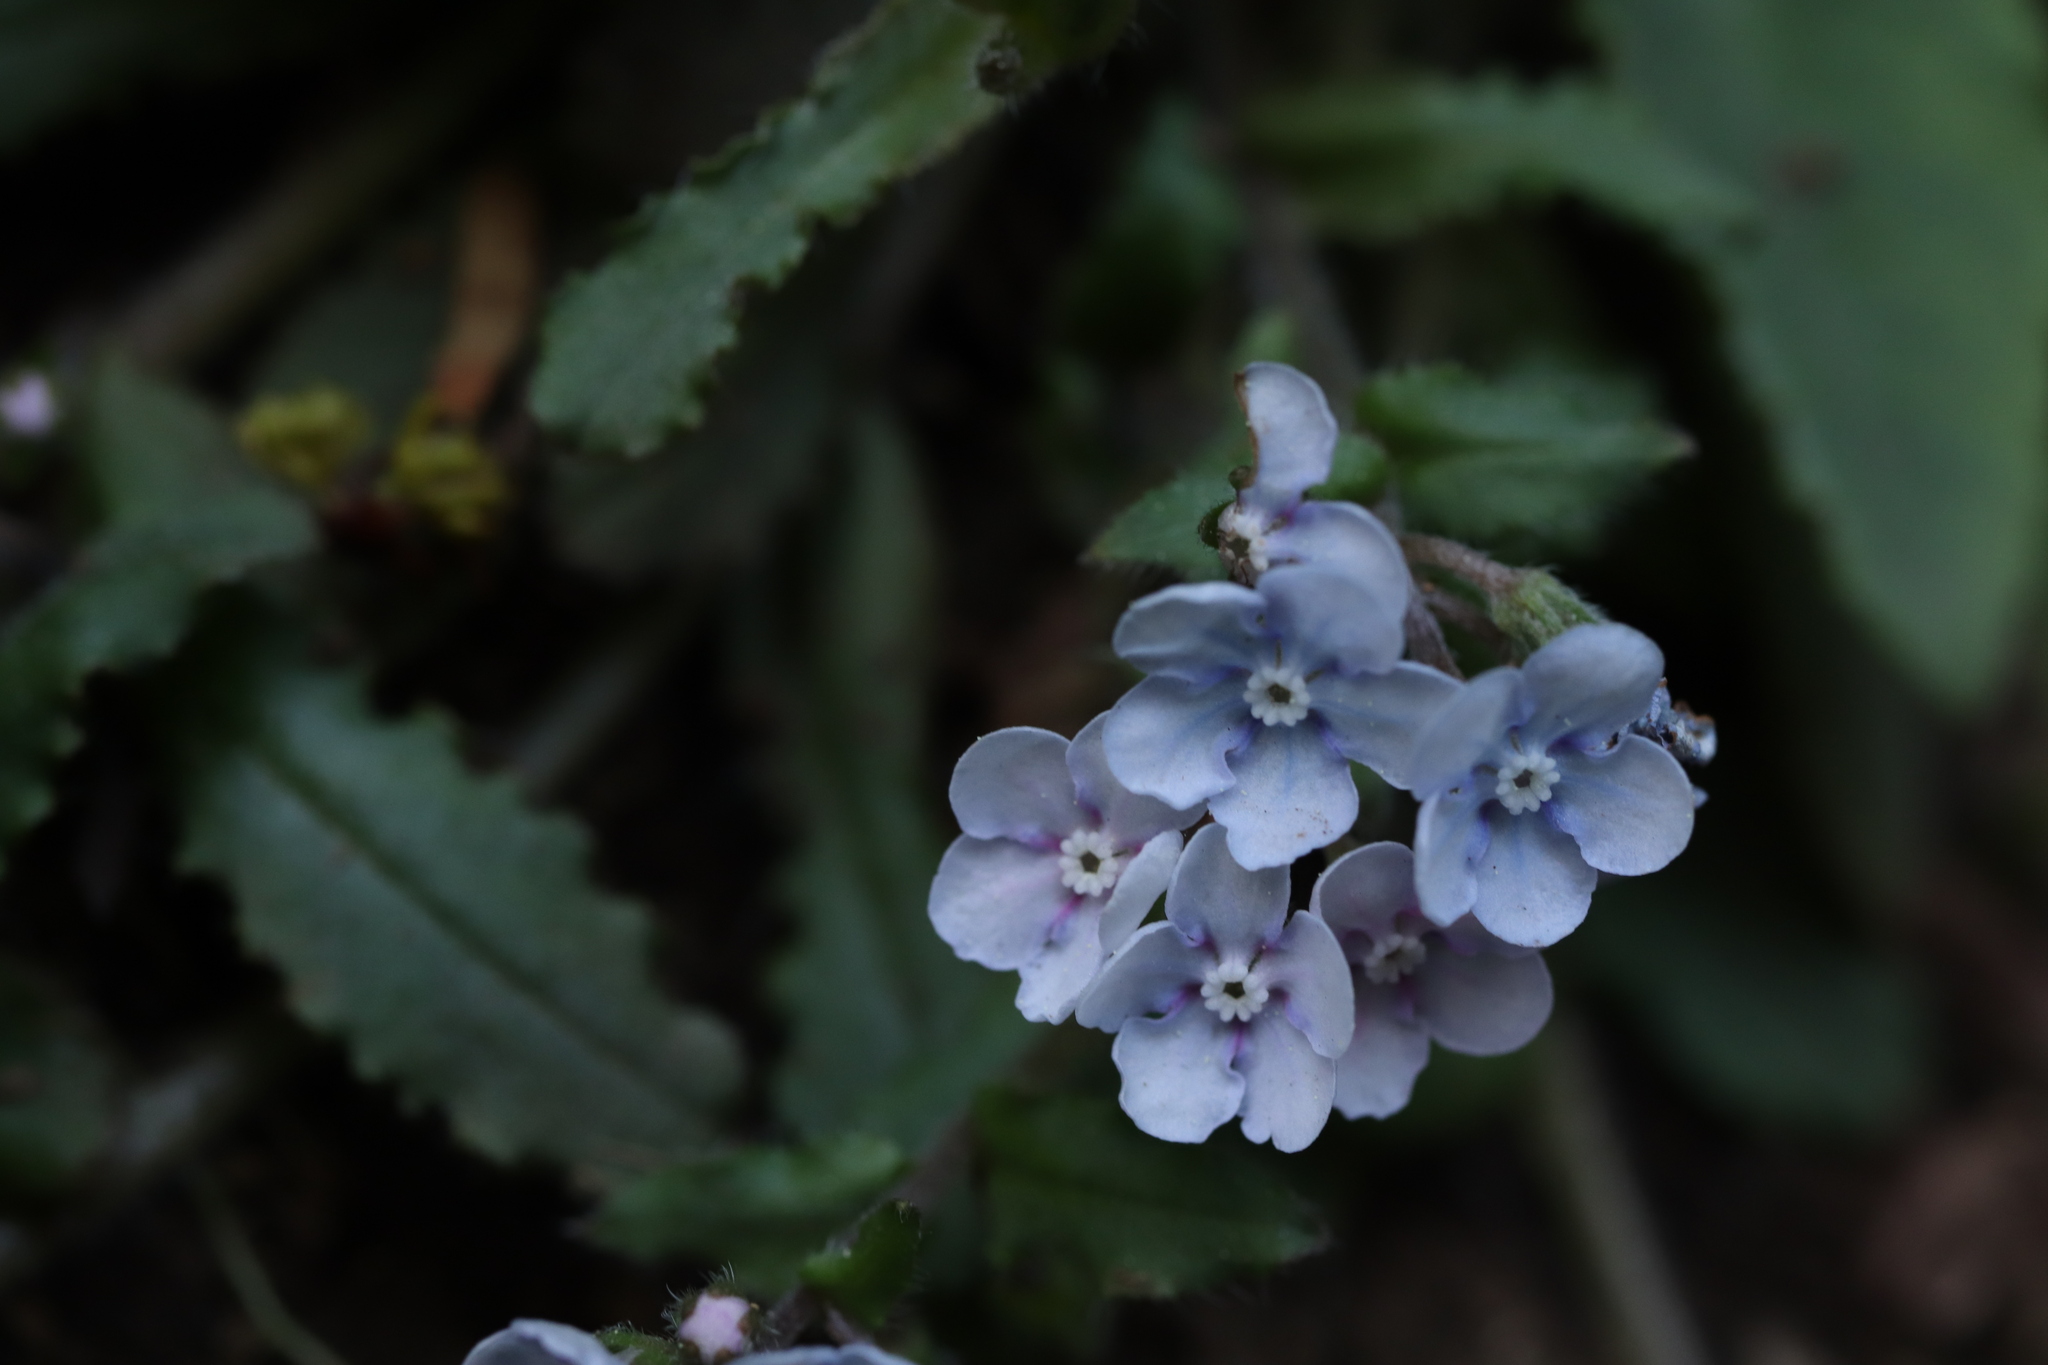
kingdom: Plantae
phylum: Tracheophyta
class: Magnoliopsida
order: Boraginales
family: Boraginaceae
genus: Nihon
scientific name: Nihon japonicum
